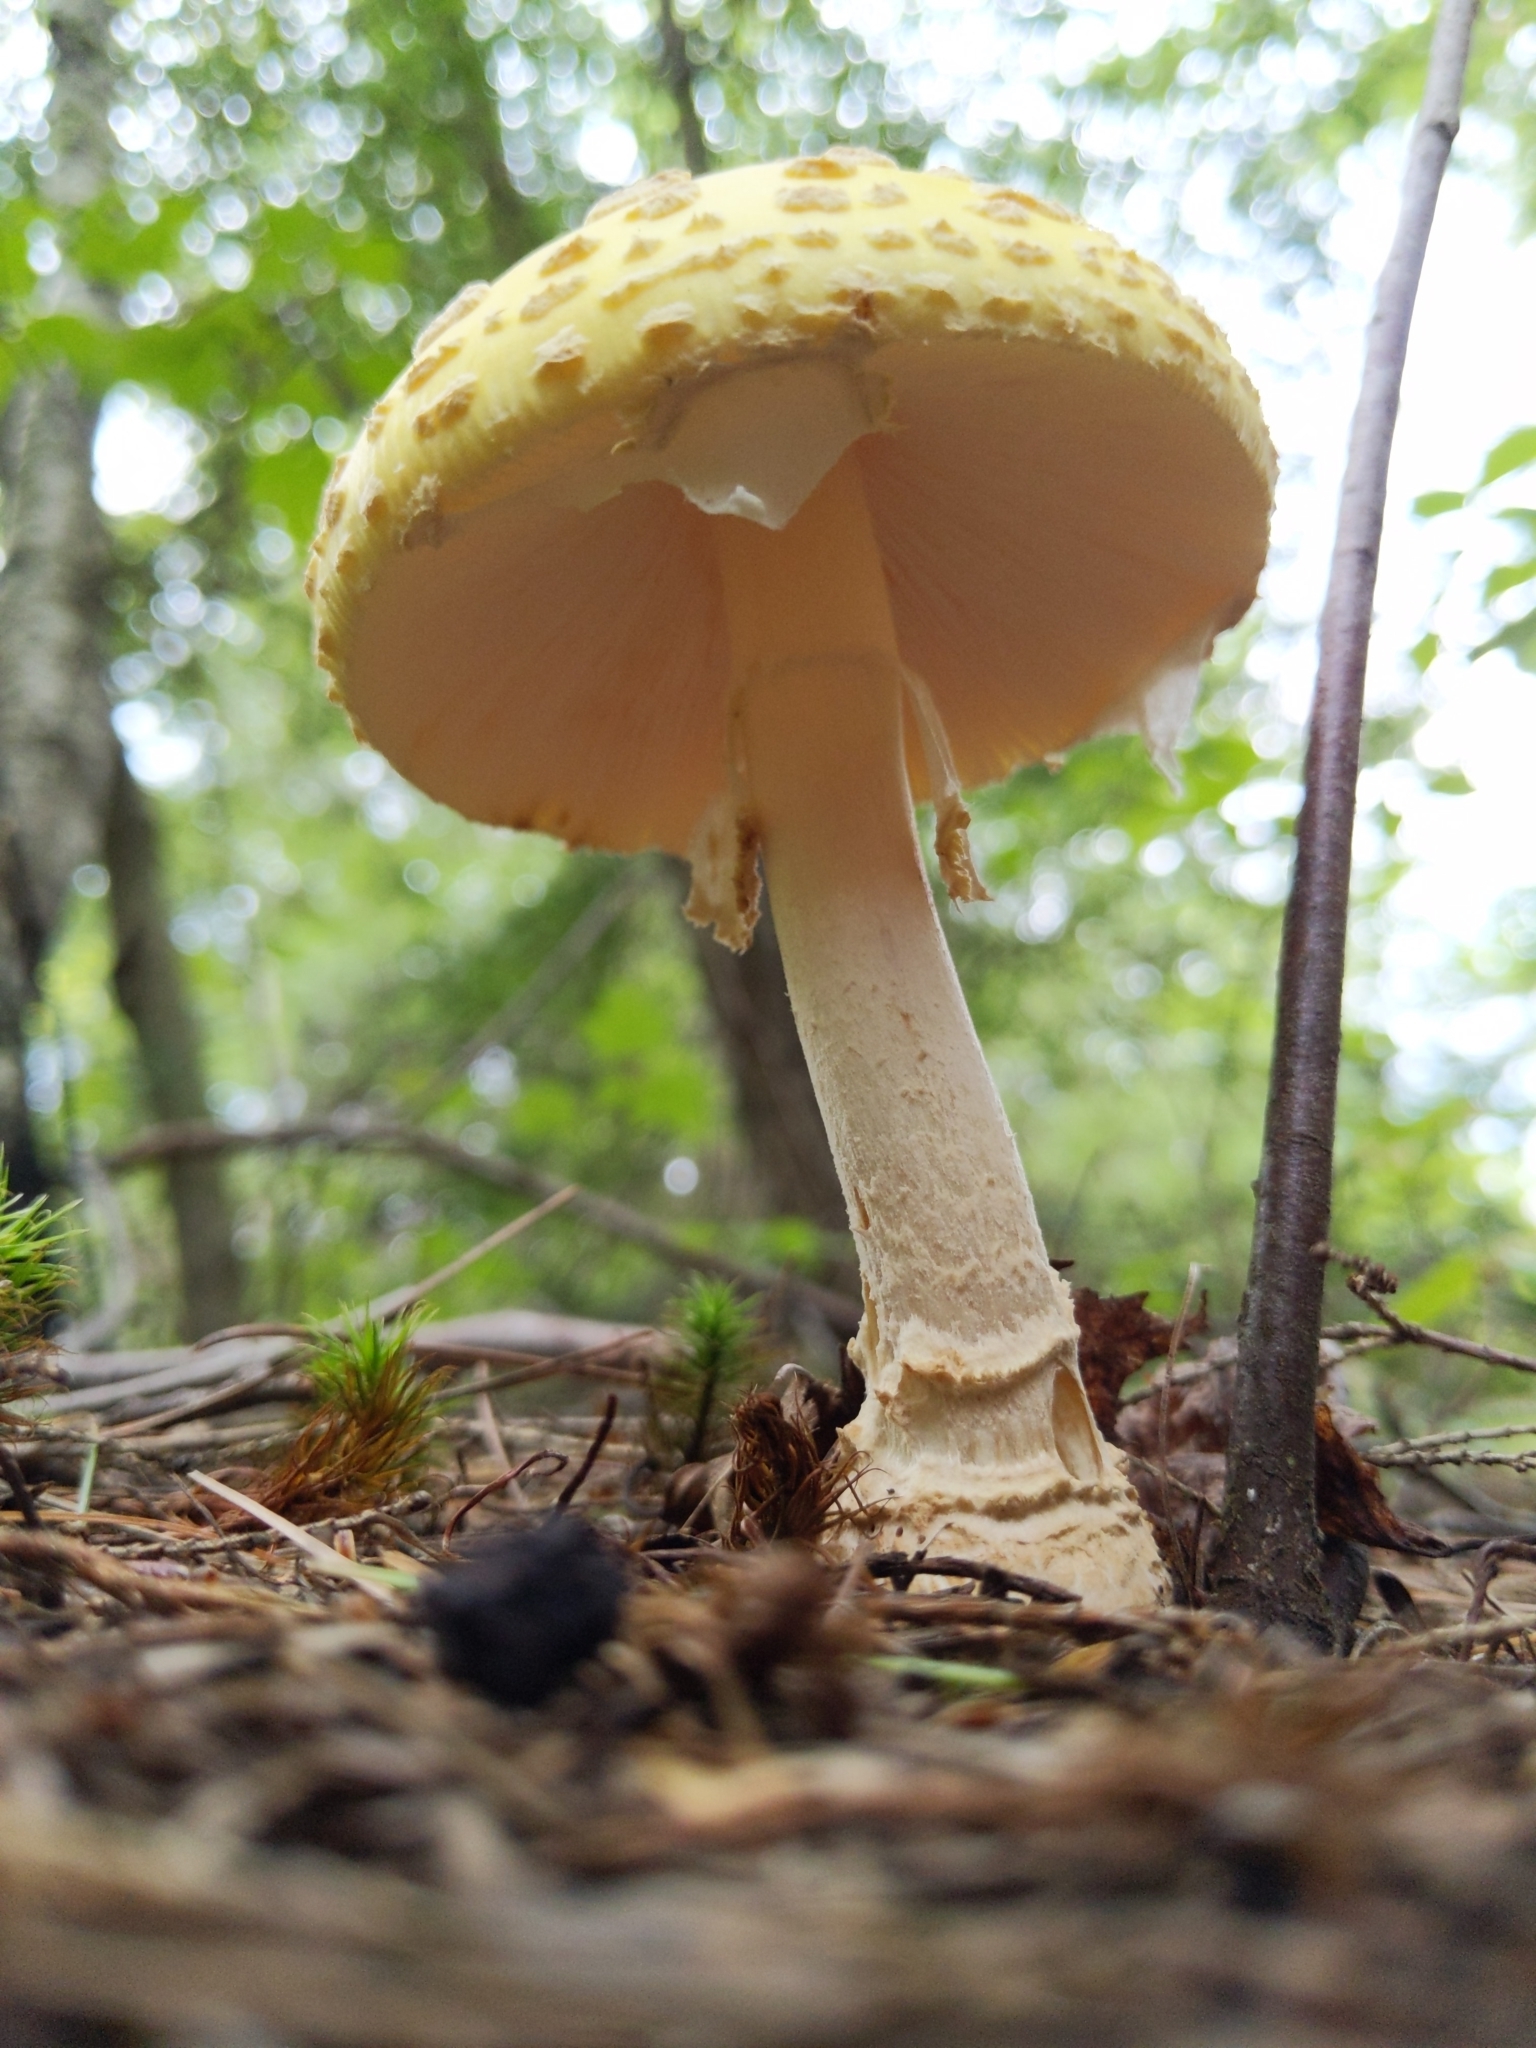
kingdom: Fungi
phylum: Basidiomycota
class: Agaricomycetes
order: Agaricales
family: Amanitaceae
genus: Amanita
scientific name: Amanita muscaria
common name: Fly agaric
